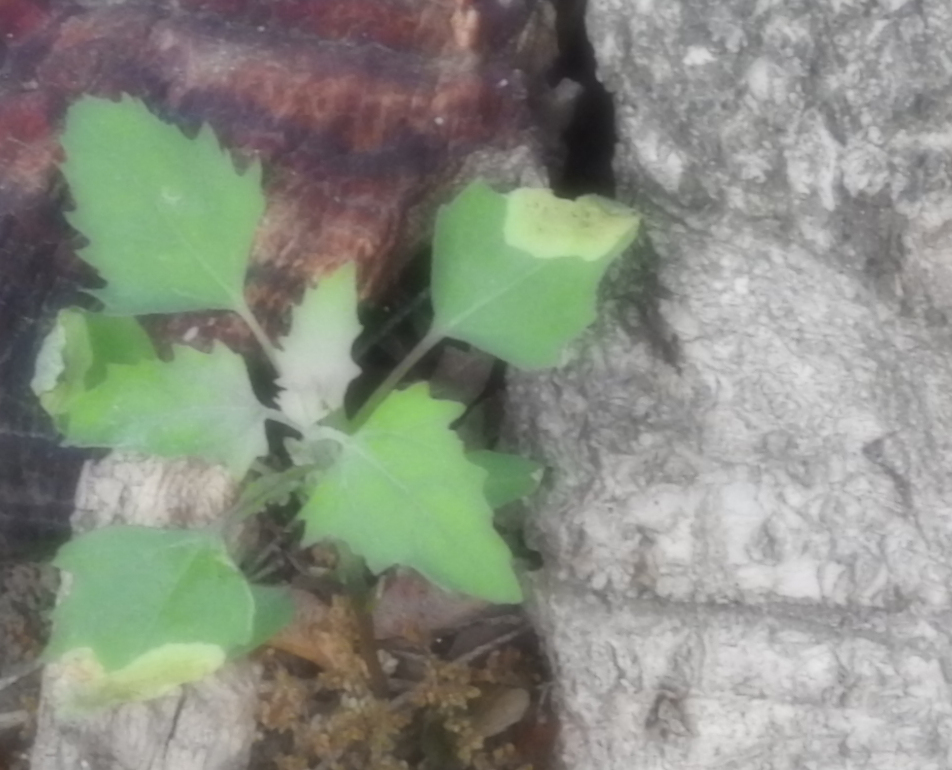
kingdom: Plantae
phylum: Tracheophyta
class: Magnoliopsida
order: Caryophyllales
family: Amaranthaceae
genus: Chenopodium
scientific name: Chenopodium album
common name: Fat-hen
